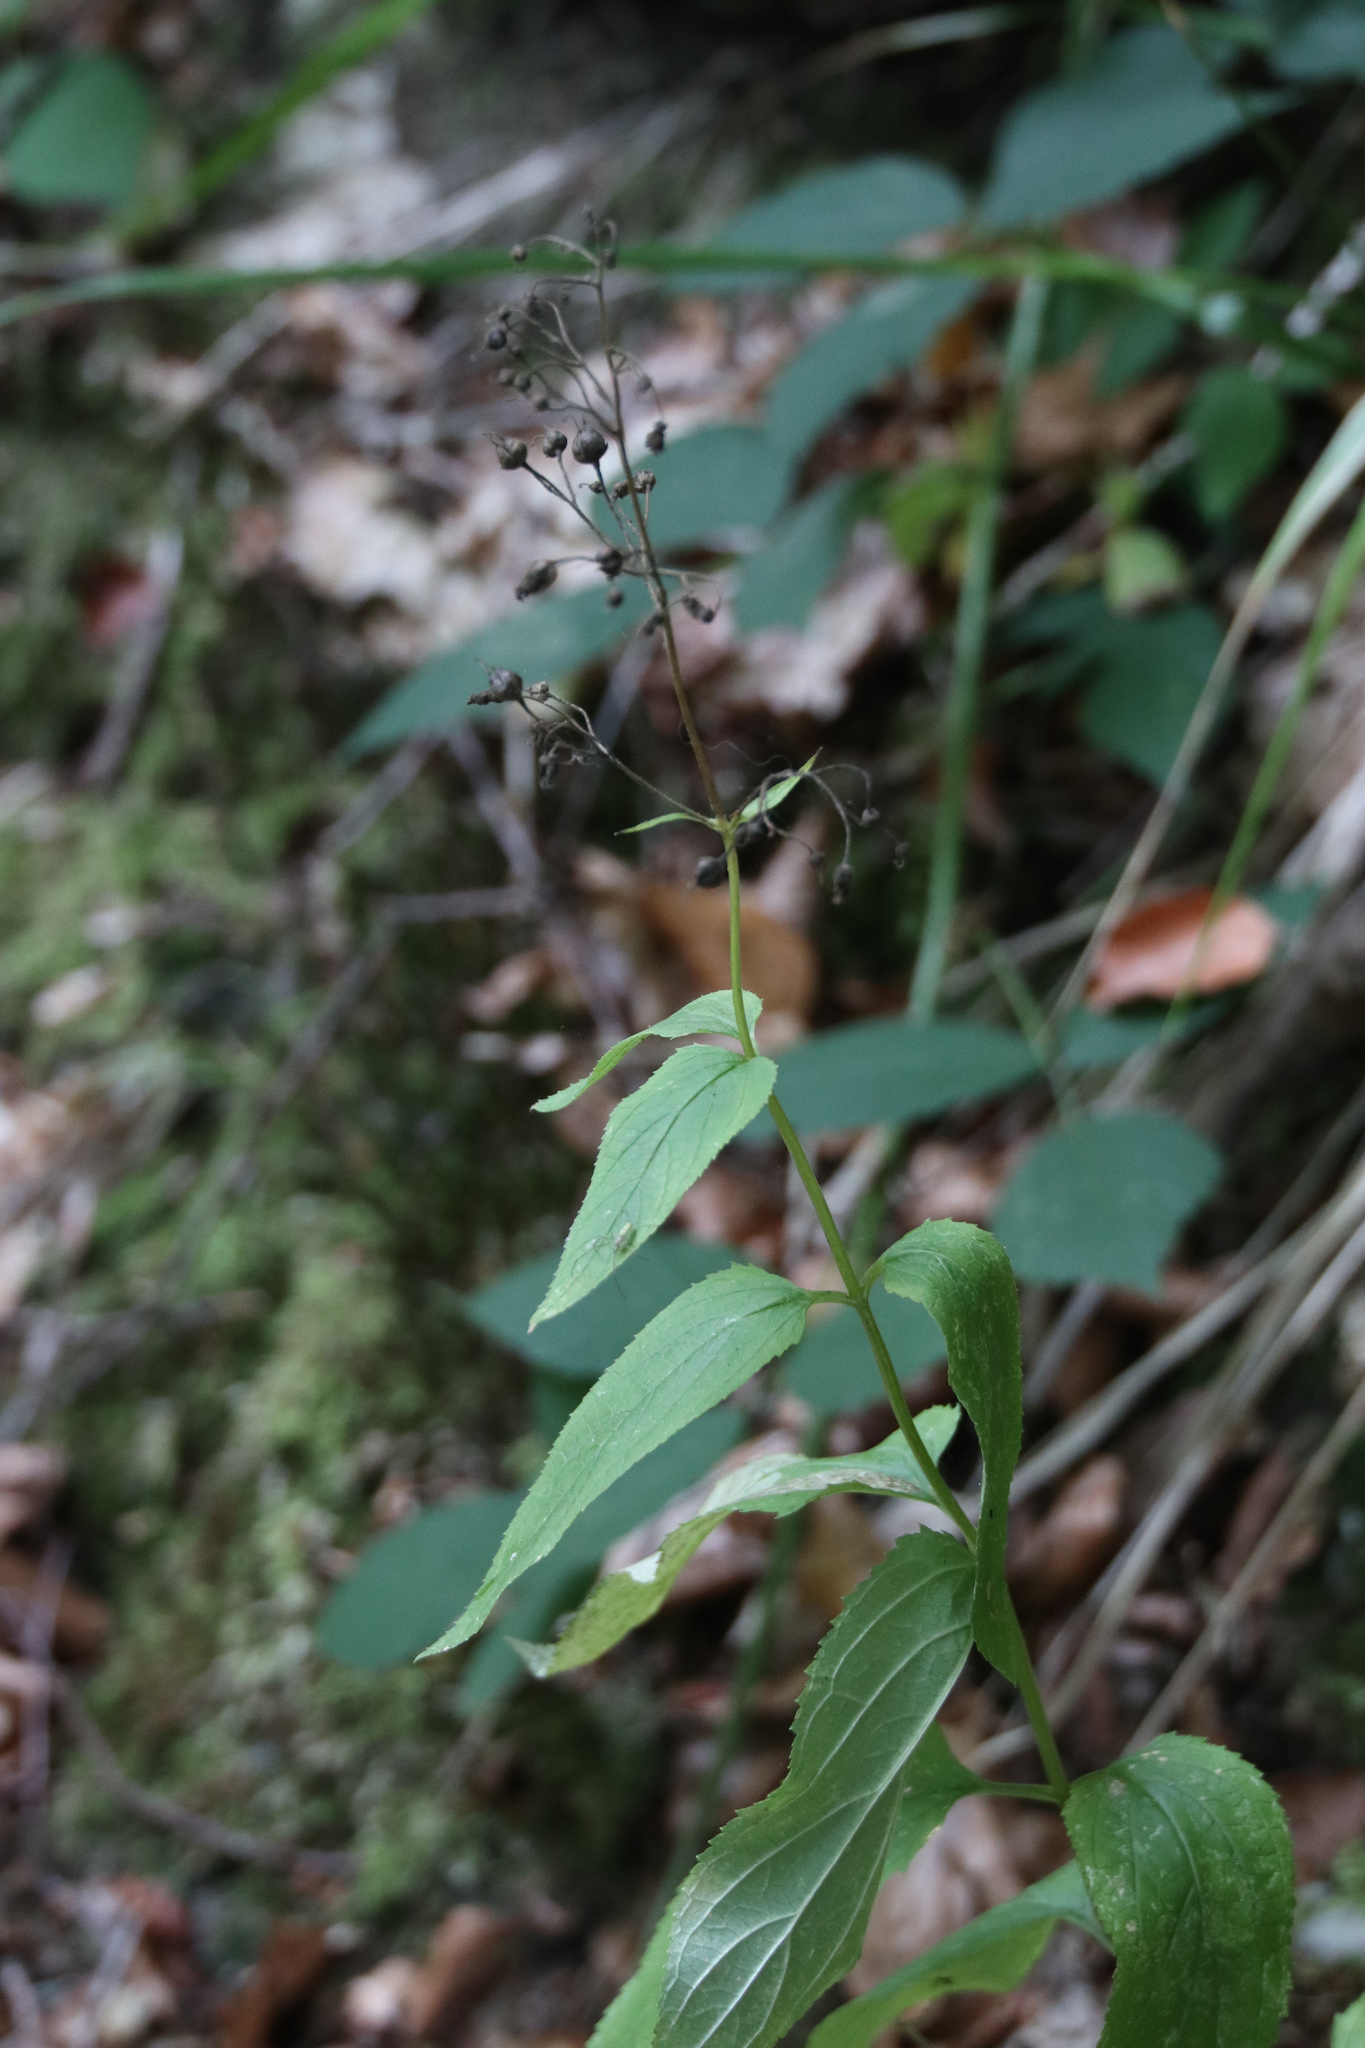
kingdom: Plantae
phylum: Tracheophyta
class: Magnoliopsida
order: Lamiales
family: Scrophulariaceae
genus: Scrophularia
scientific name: Scrophularia nodosa
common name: Common figwort
